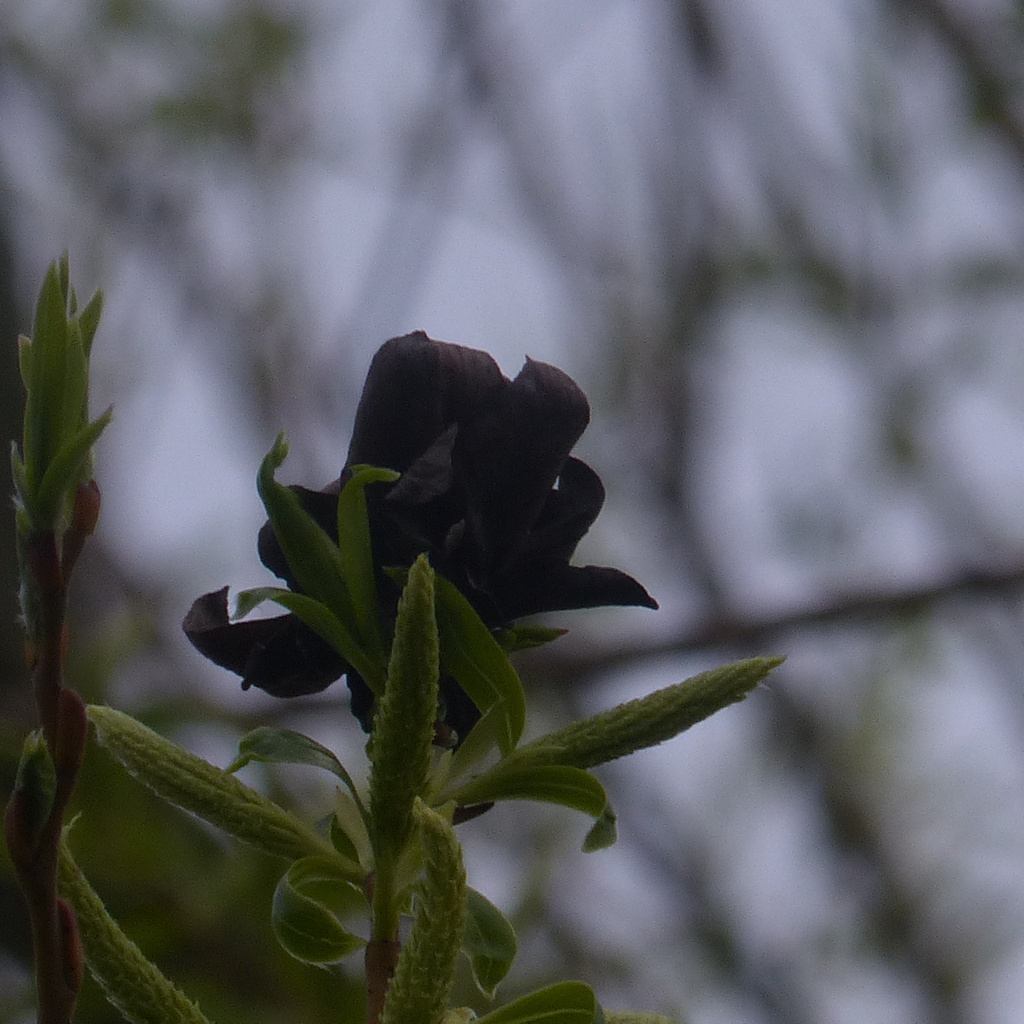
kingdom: Animalia
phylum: Arthropoda
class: Insecta
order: Diptera
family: Cecidomyiidae
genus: Rabdophaga
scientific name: Rabdophaga rosaria
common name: Willow rose gall midge
